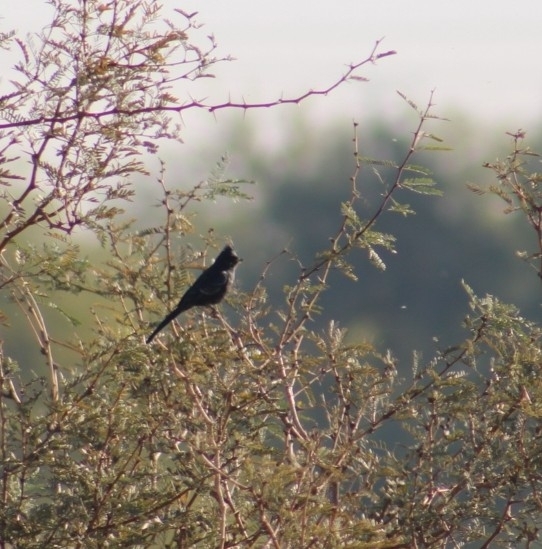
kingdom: Animalia
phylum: Chordata
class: Aves
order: Passeriformes
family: Ptilogonatidae
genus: Phainopepla
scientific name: Phainopepla nitens
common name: Phainopepla
